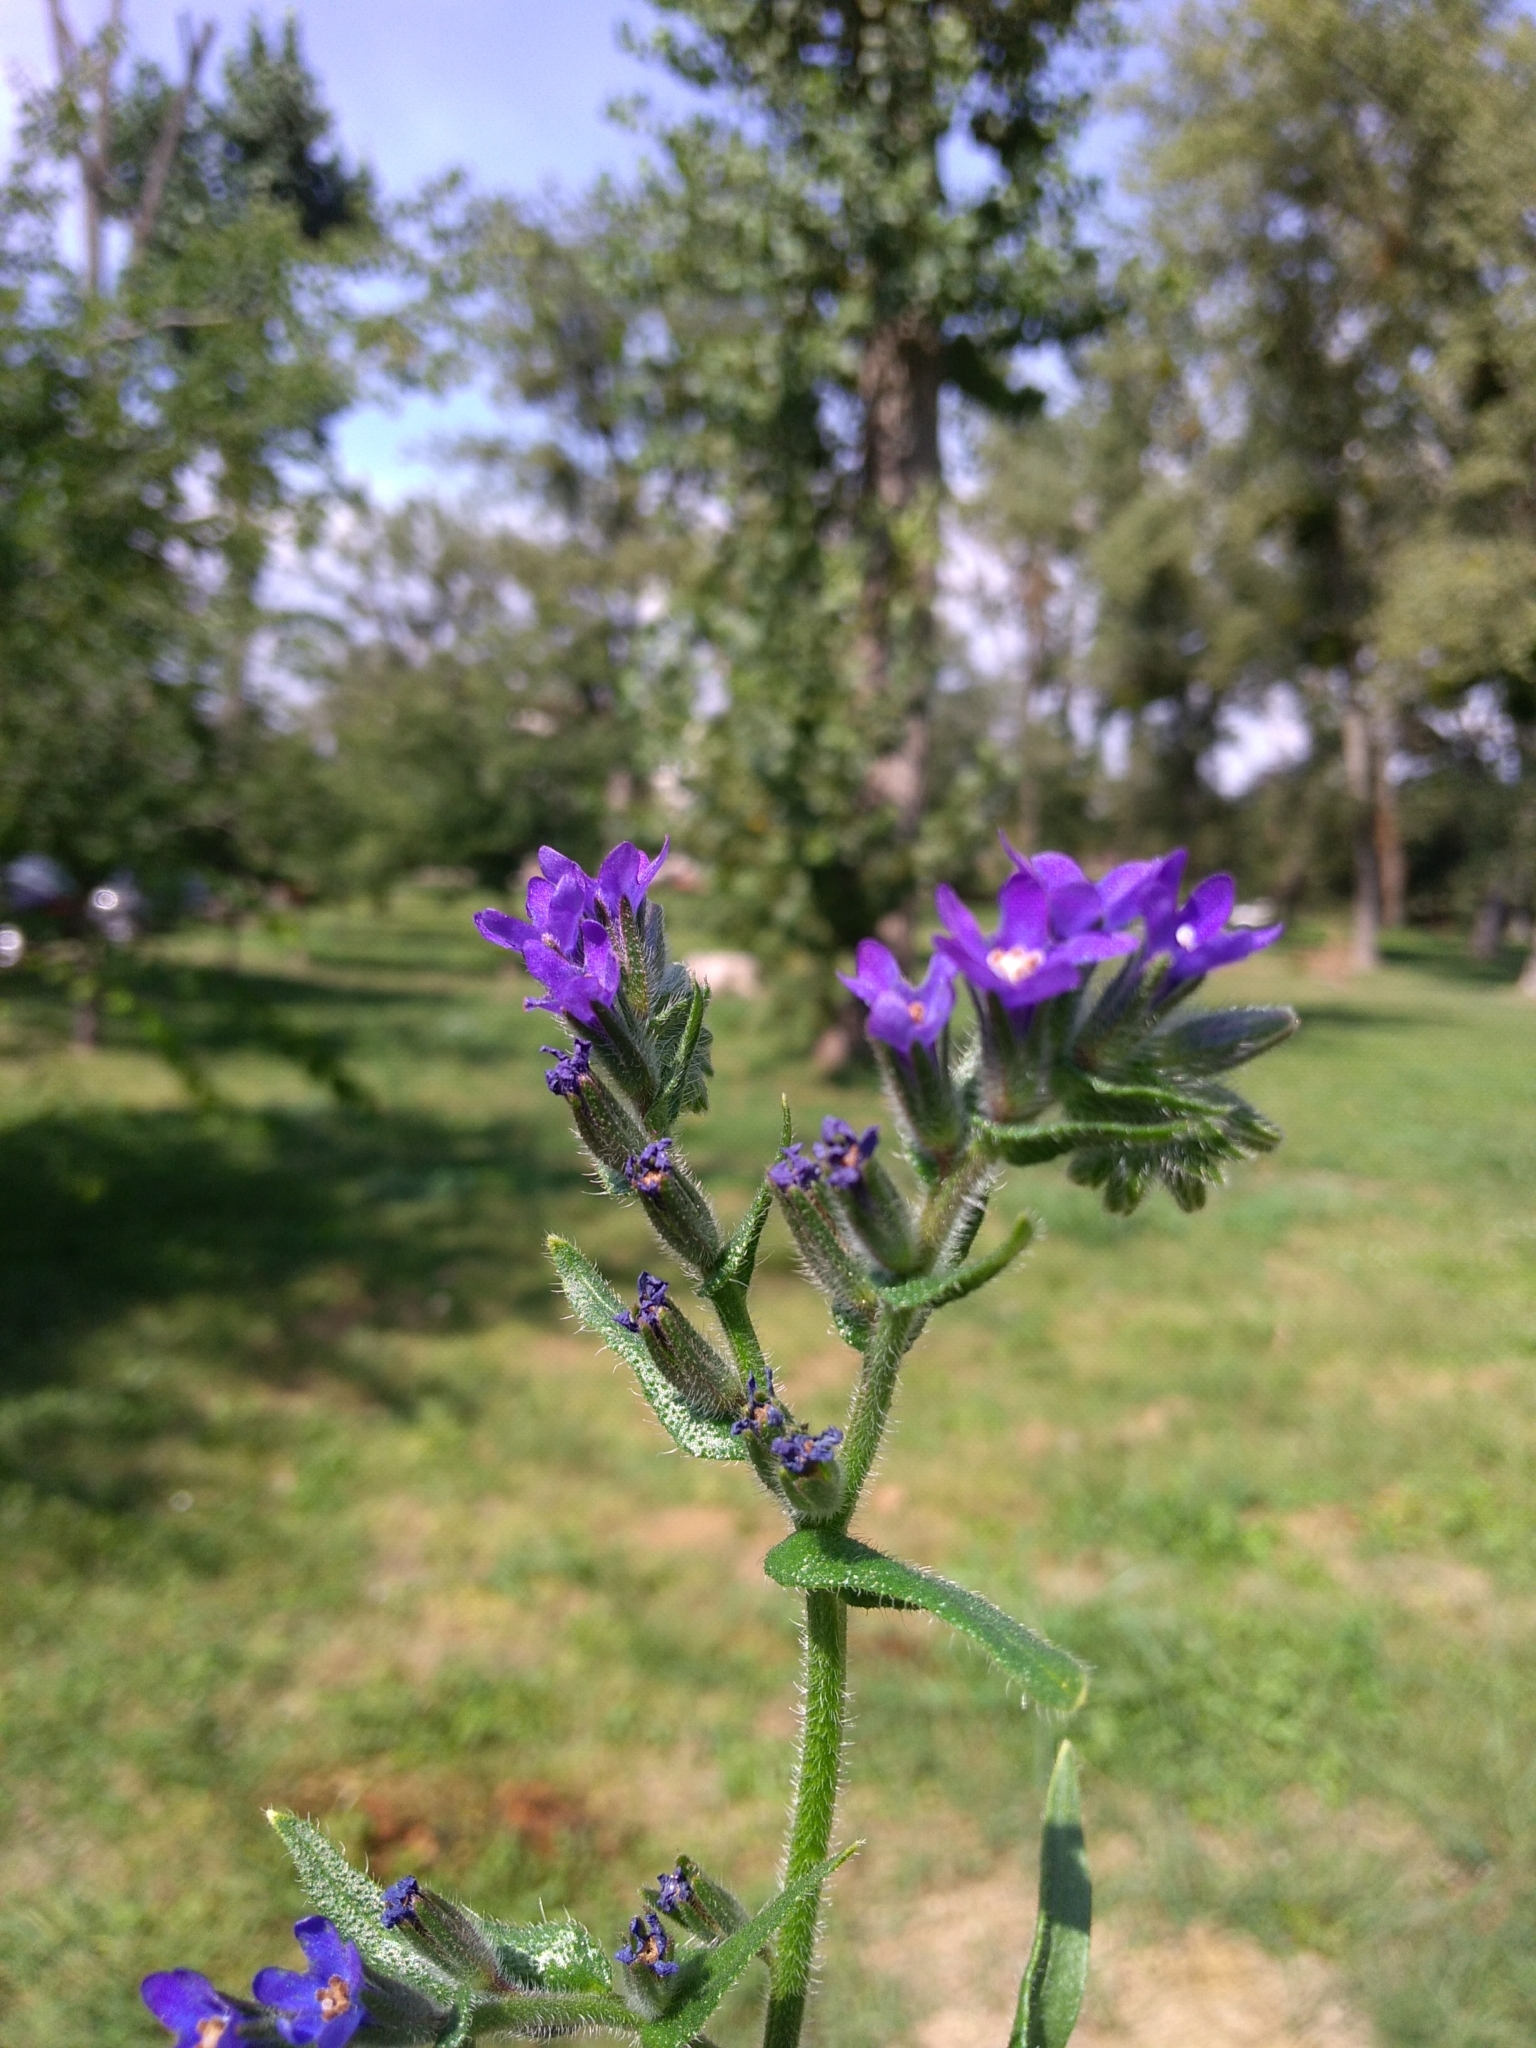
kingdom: Plantae
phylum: Tracheophyta
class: Magnoliopsida
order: Boraginales
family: Boraginaceae
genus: Anchusa
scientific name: Anchusa officinalis
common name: Alkanet
